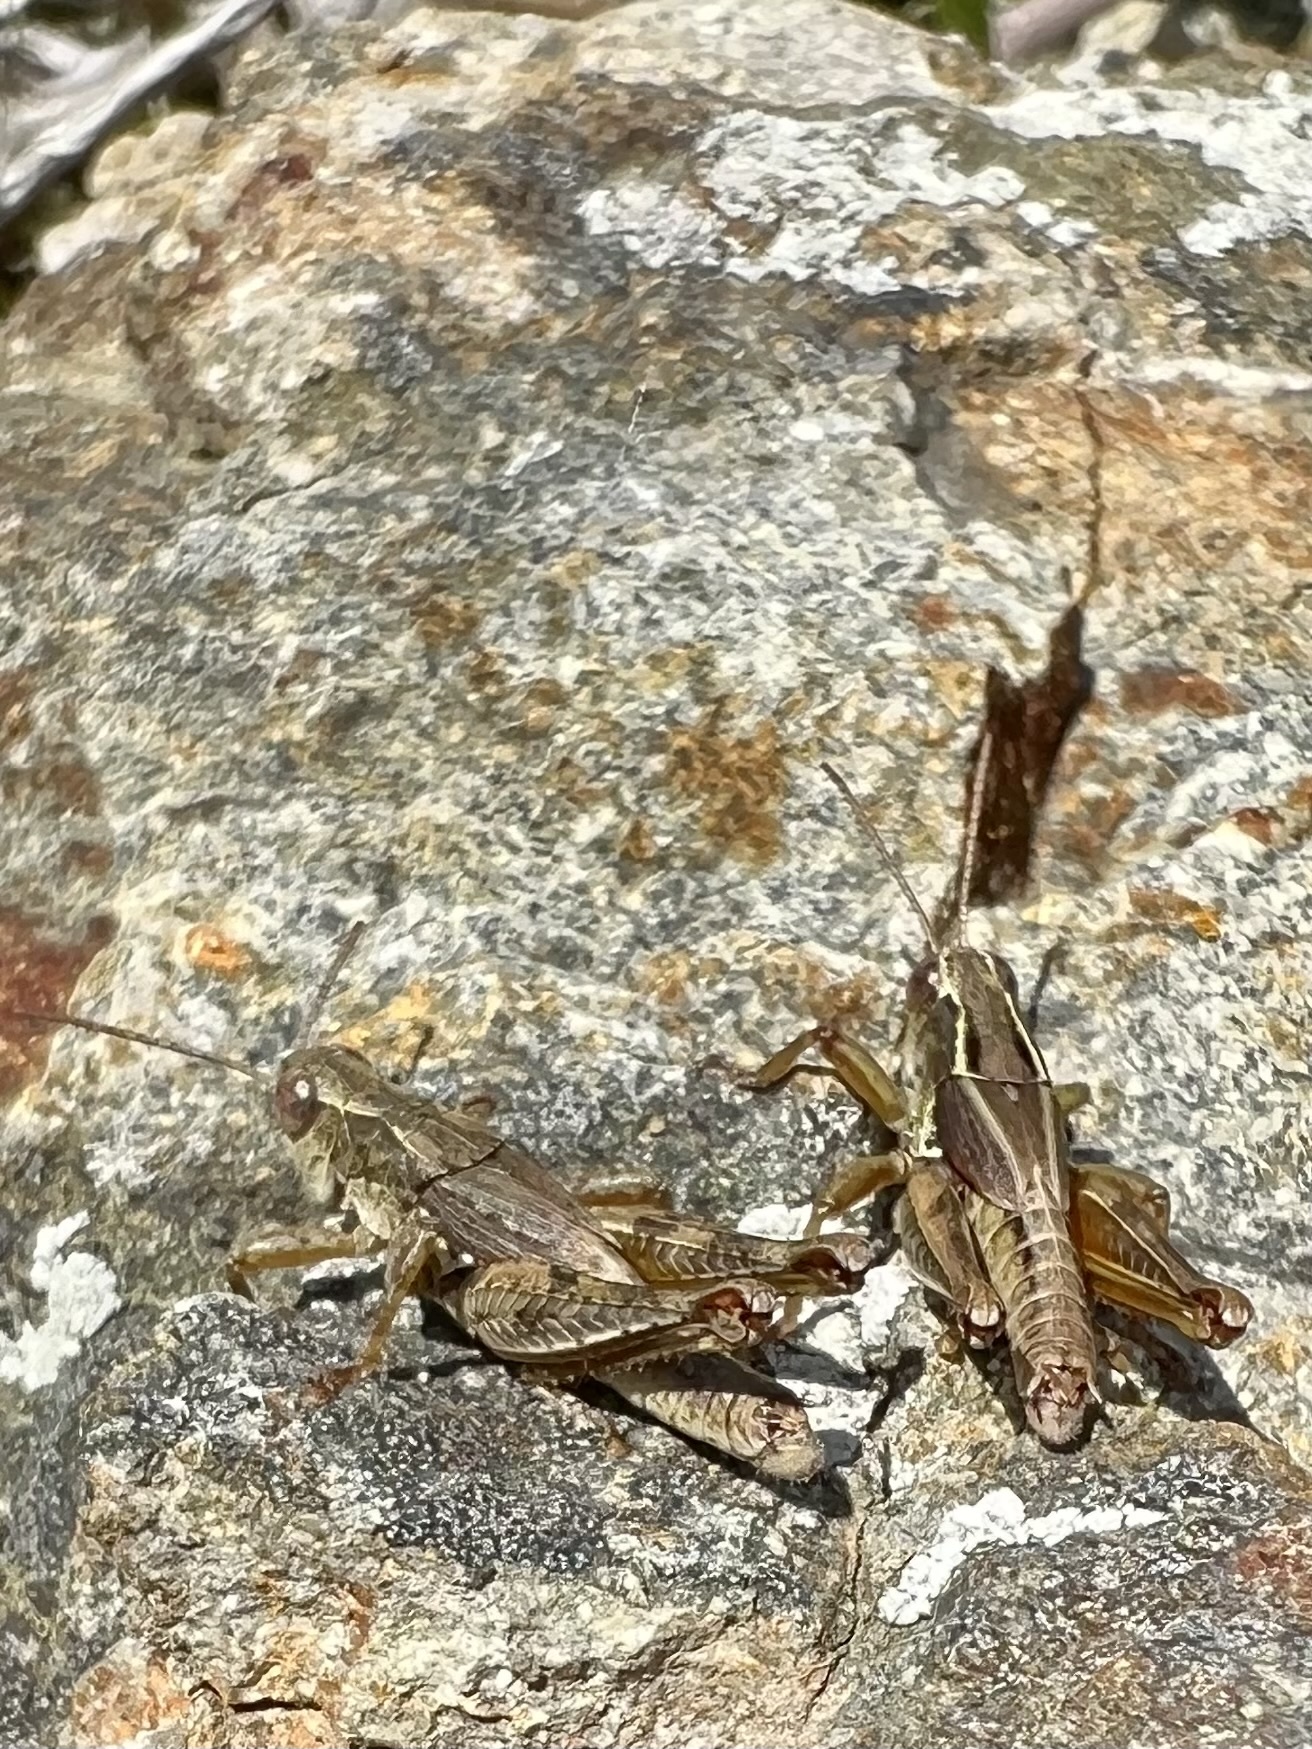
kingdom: Animalia
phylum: Arthropoda
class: Insecta
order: Orthoptera
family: Acrididae
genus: Phaulacridium
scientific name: Phaulacridium marginale
